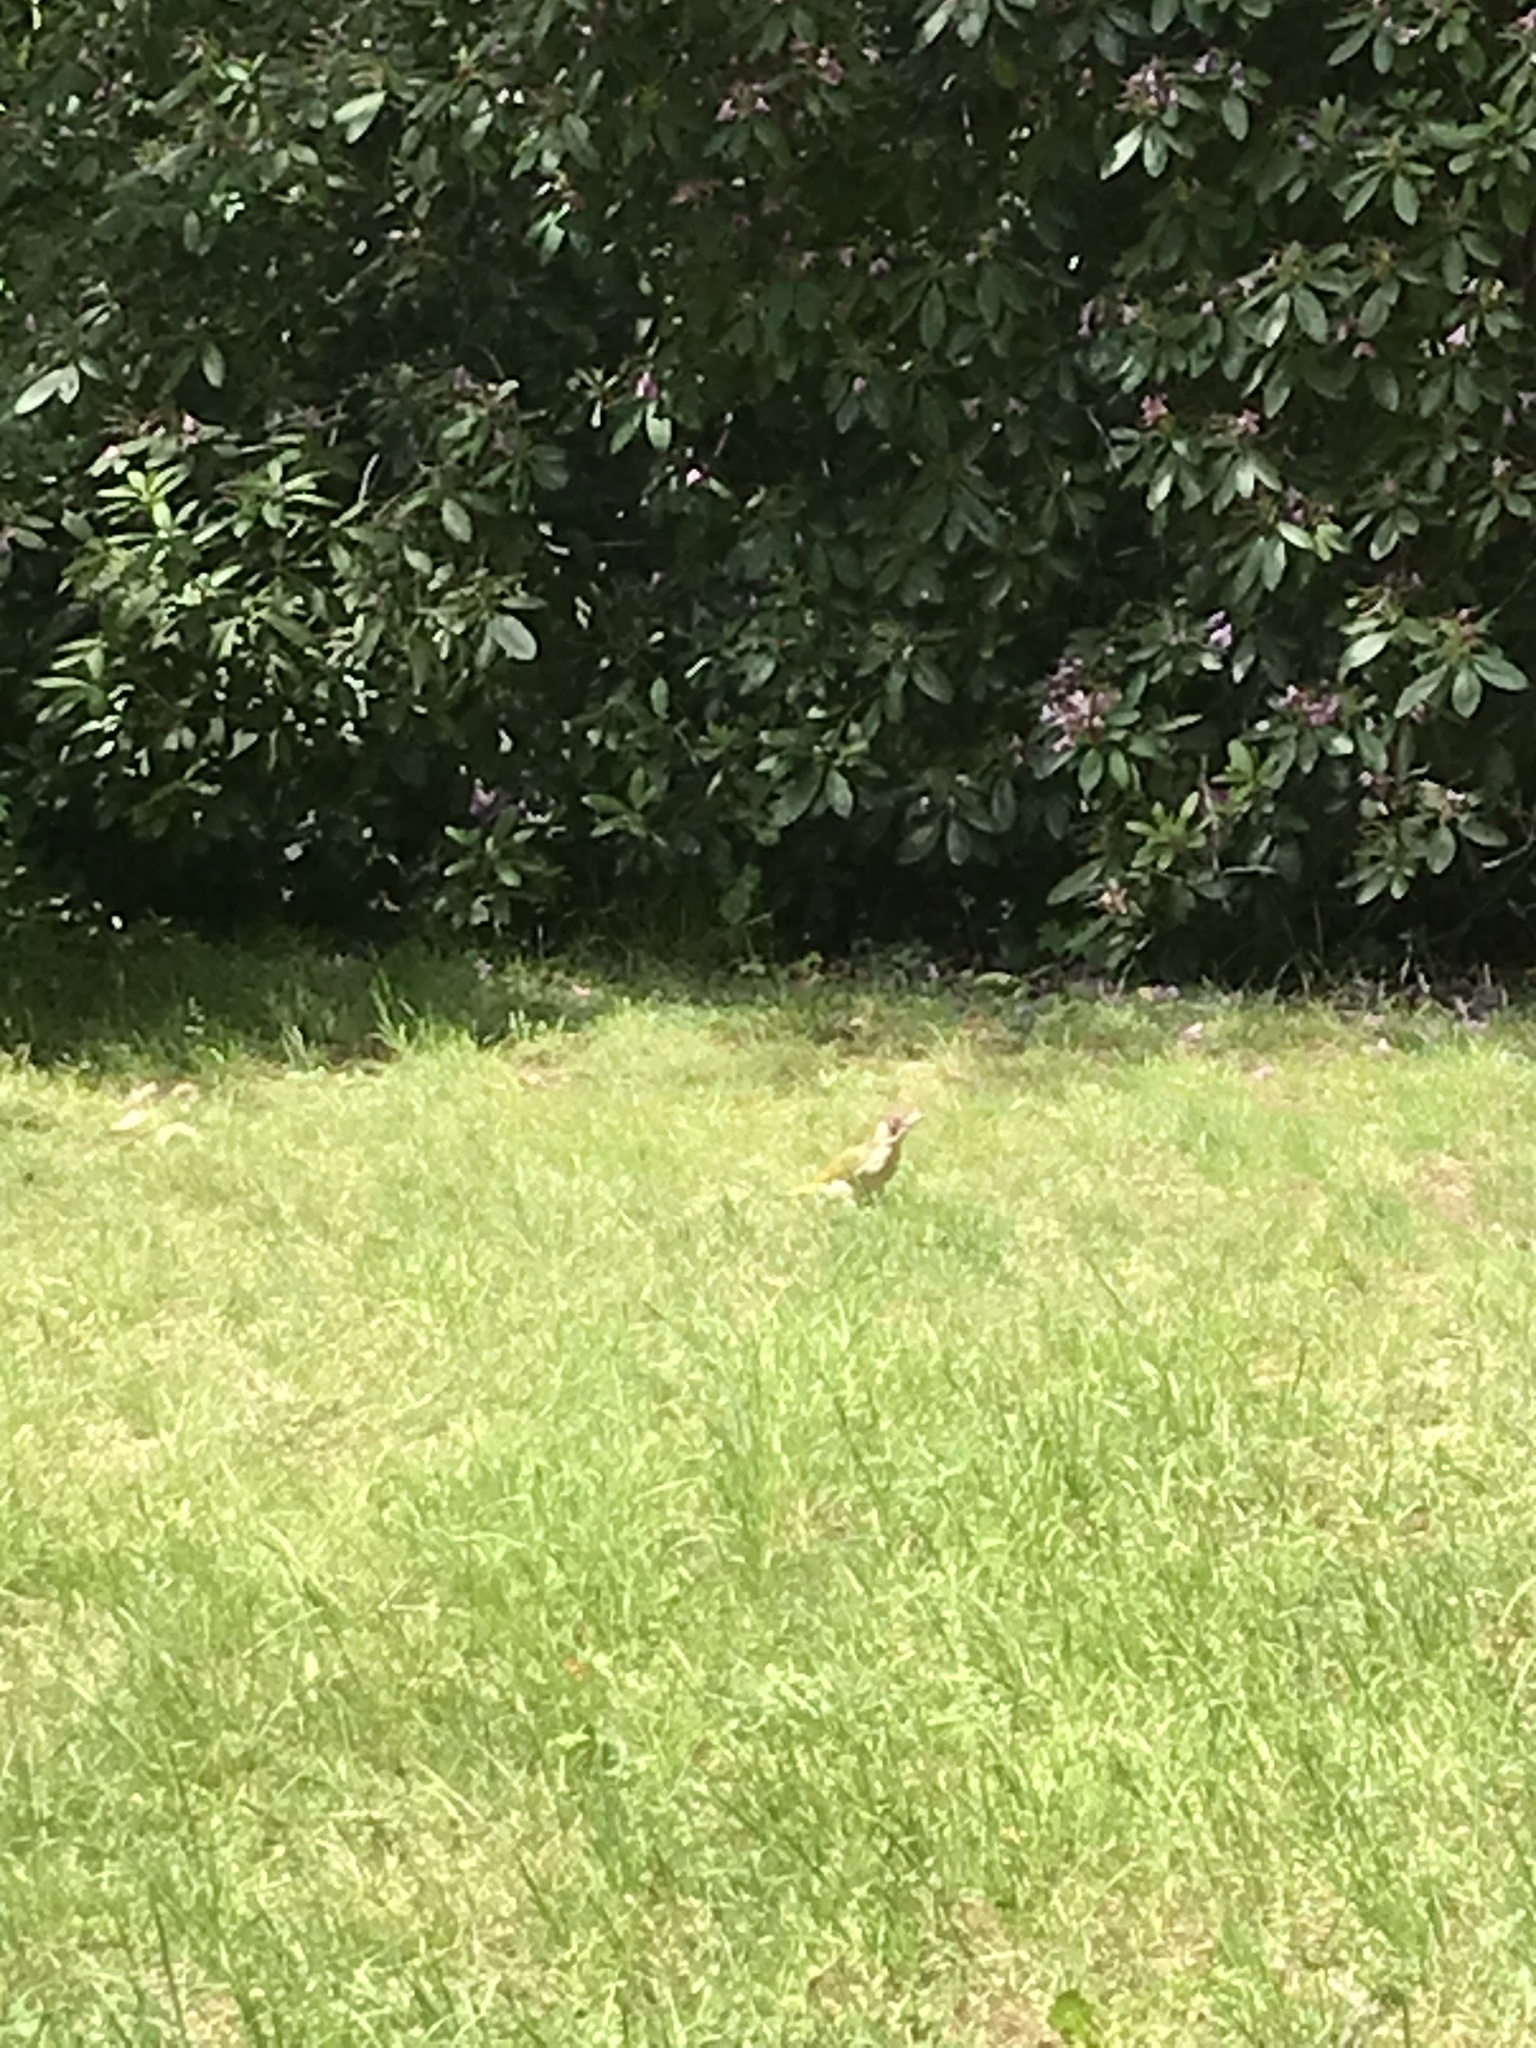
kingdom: Animalia
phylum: Chordata
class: Aves
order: Piciformes
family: Picidae
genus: Picus
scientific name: Picus viridis
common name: European green woodpecker
